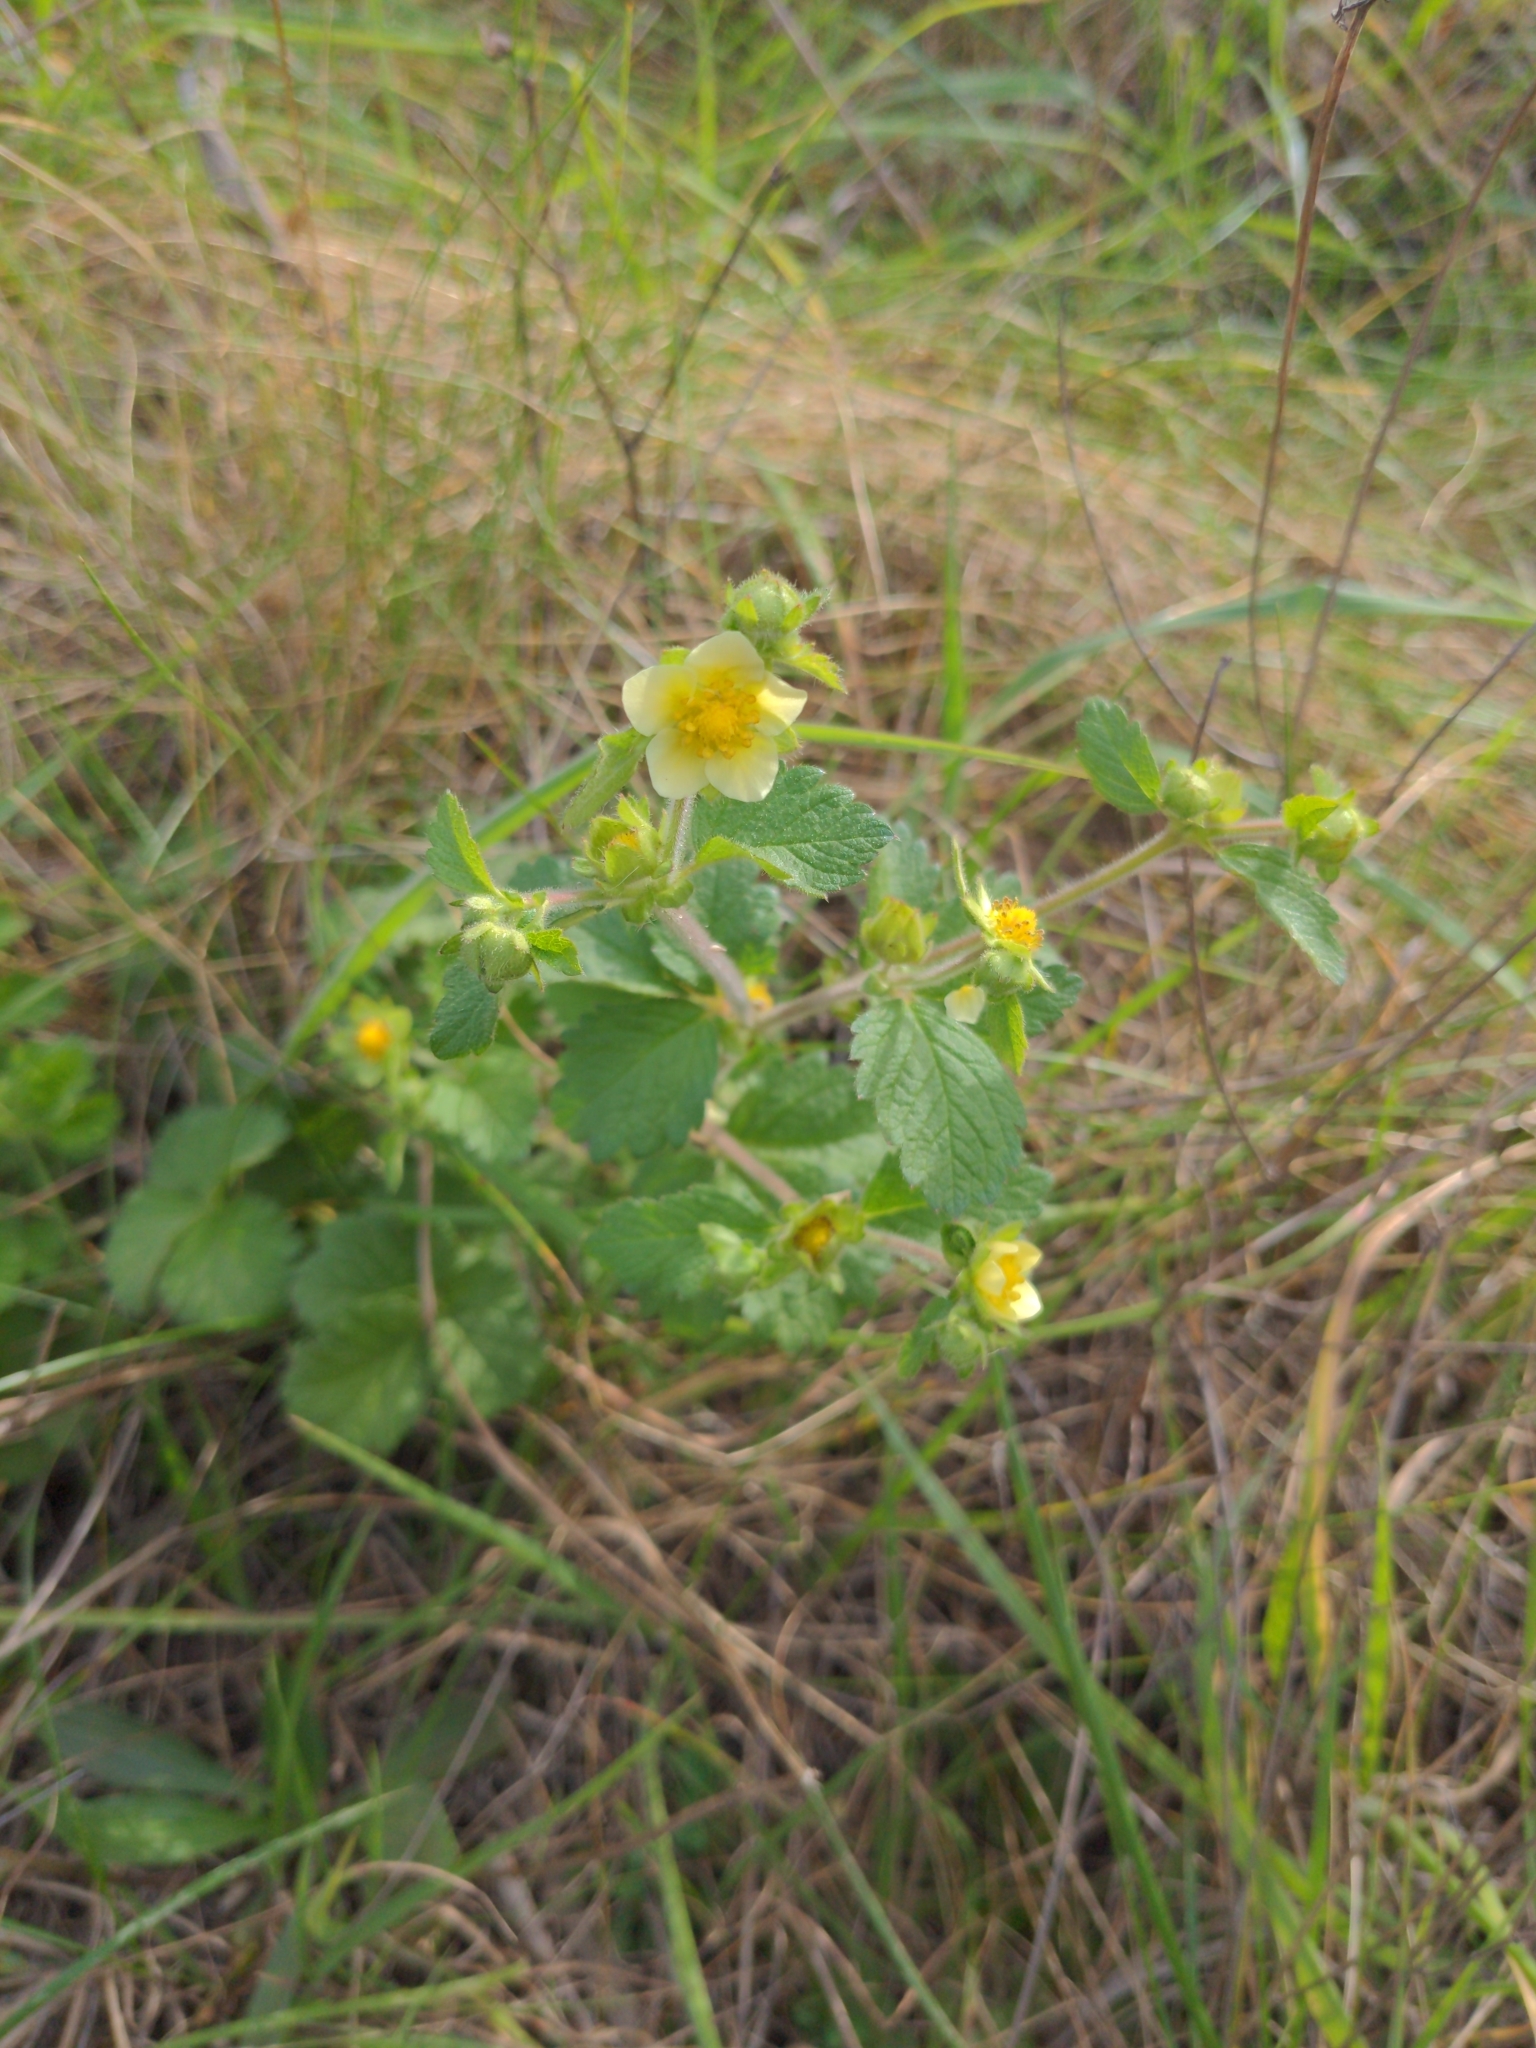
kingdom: Plantae
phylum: Tracheophyta
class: Magnoliopsida
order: Rosales
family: Rosaceae
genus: Drymocallis
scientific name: Drymocallis glandulosa
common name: Sticky cinquefoil
